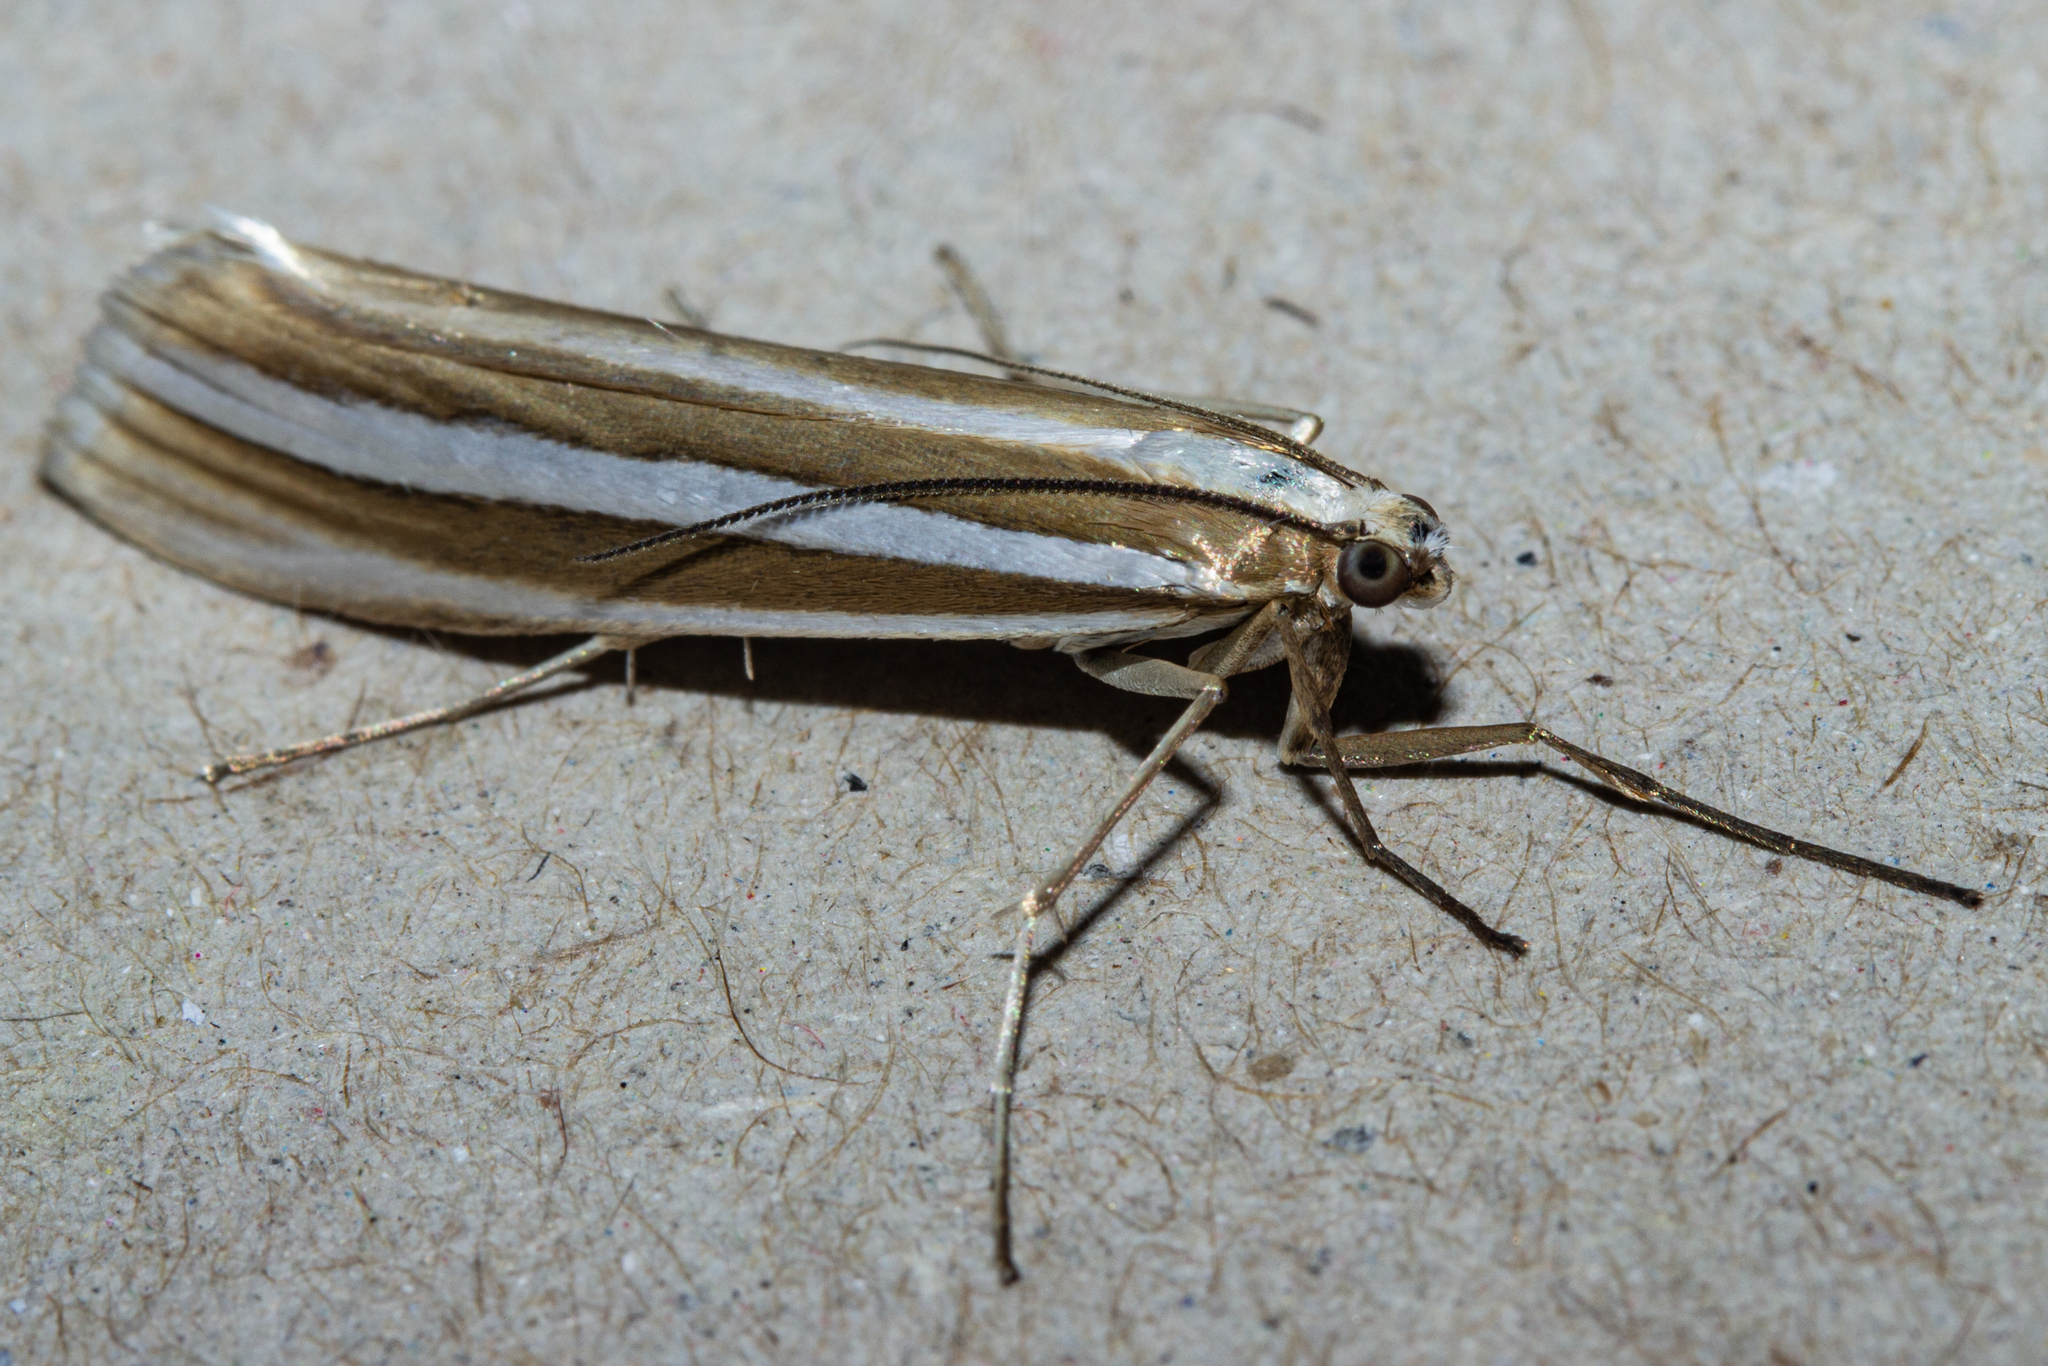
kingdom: Animalia
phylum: Arthropoda
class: Insecta
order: Lepidoptera
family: Crambidae
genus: Orocrambus
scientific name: Orocrambus siriellus
